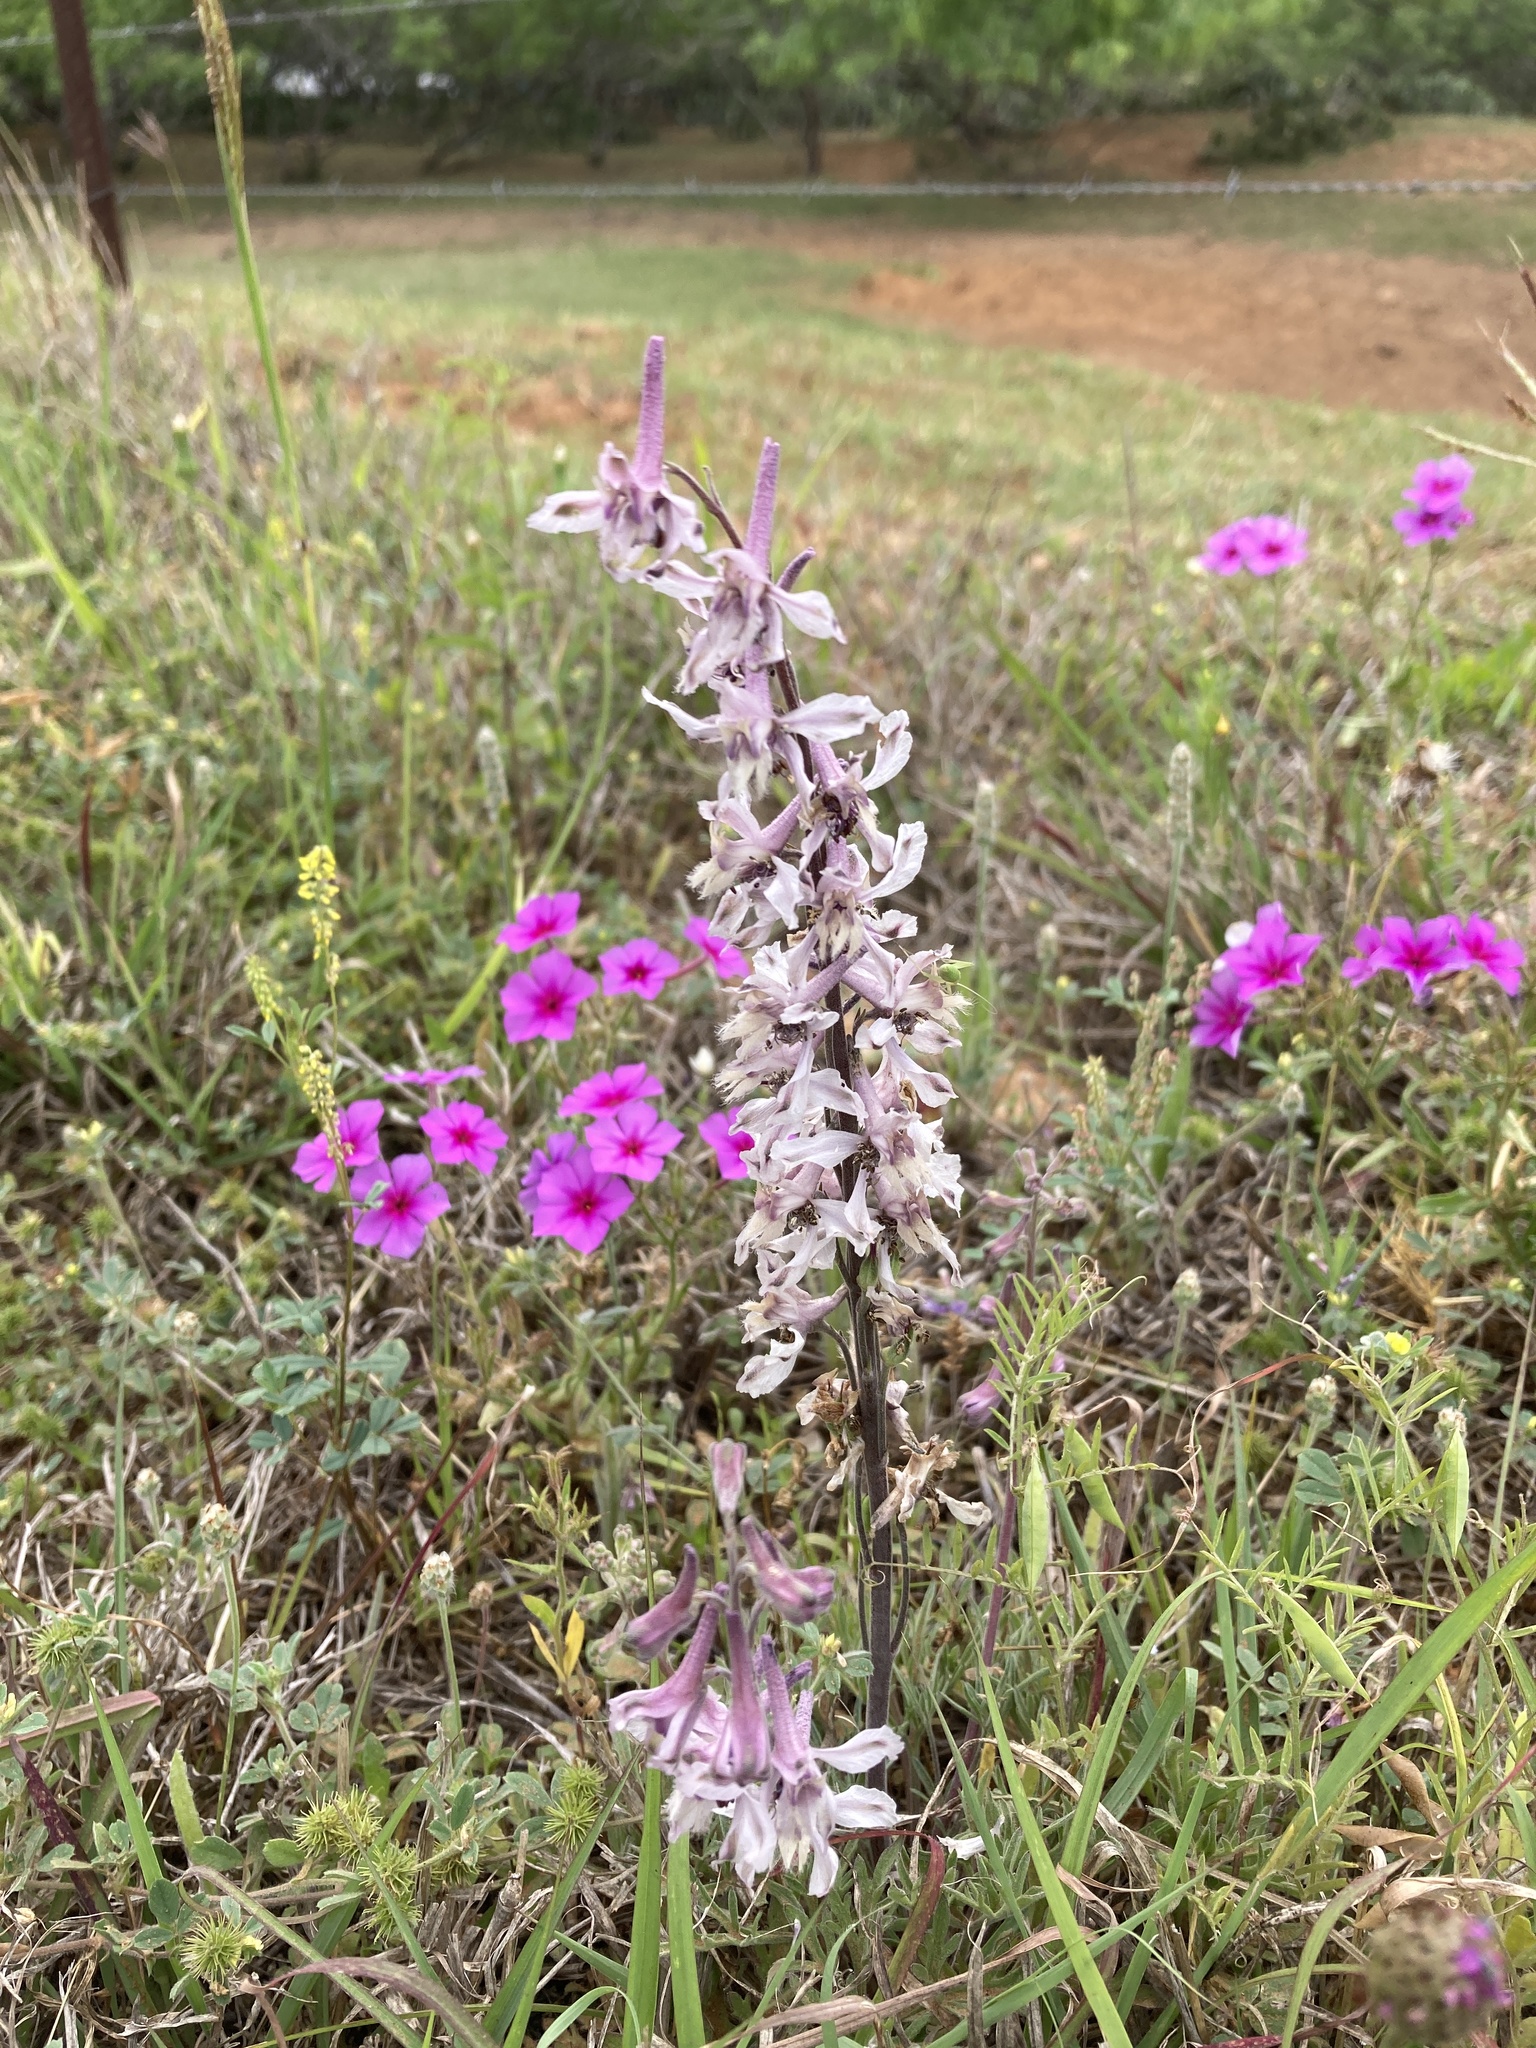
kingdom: Plantae
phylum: Tracheophyta
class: Magnoliopsida
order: Ranunculales
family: Ranunculaceae
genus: Delphinium
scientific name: Delphinium carolinianum
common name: Carolina larkspur
